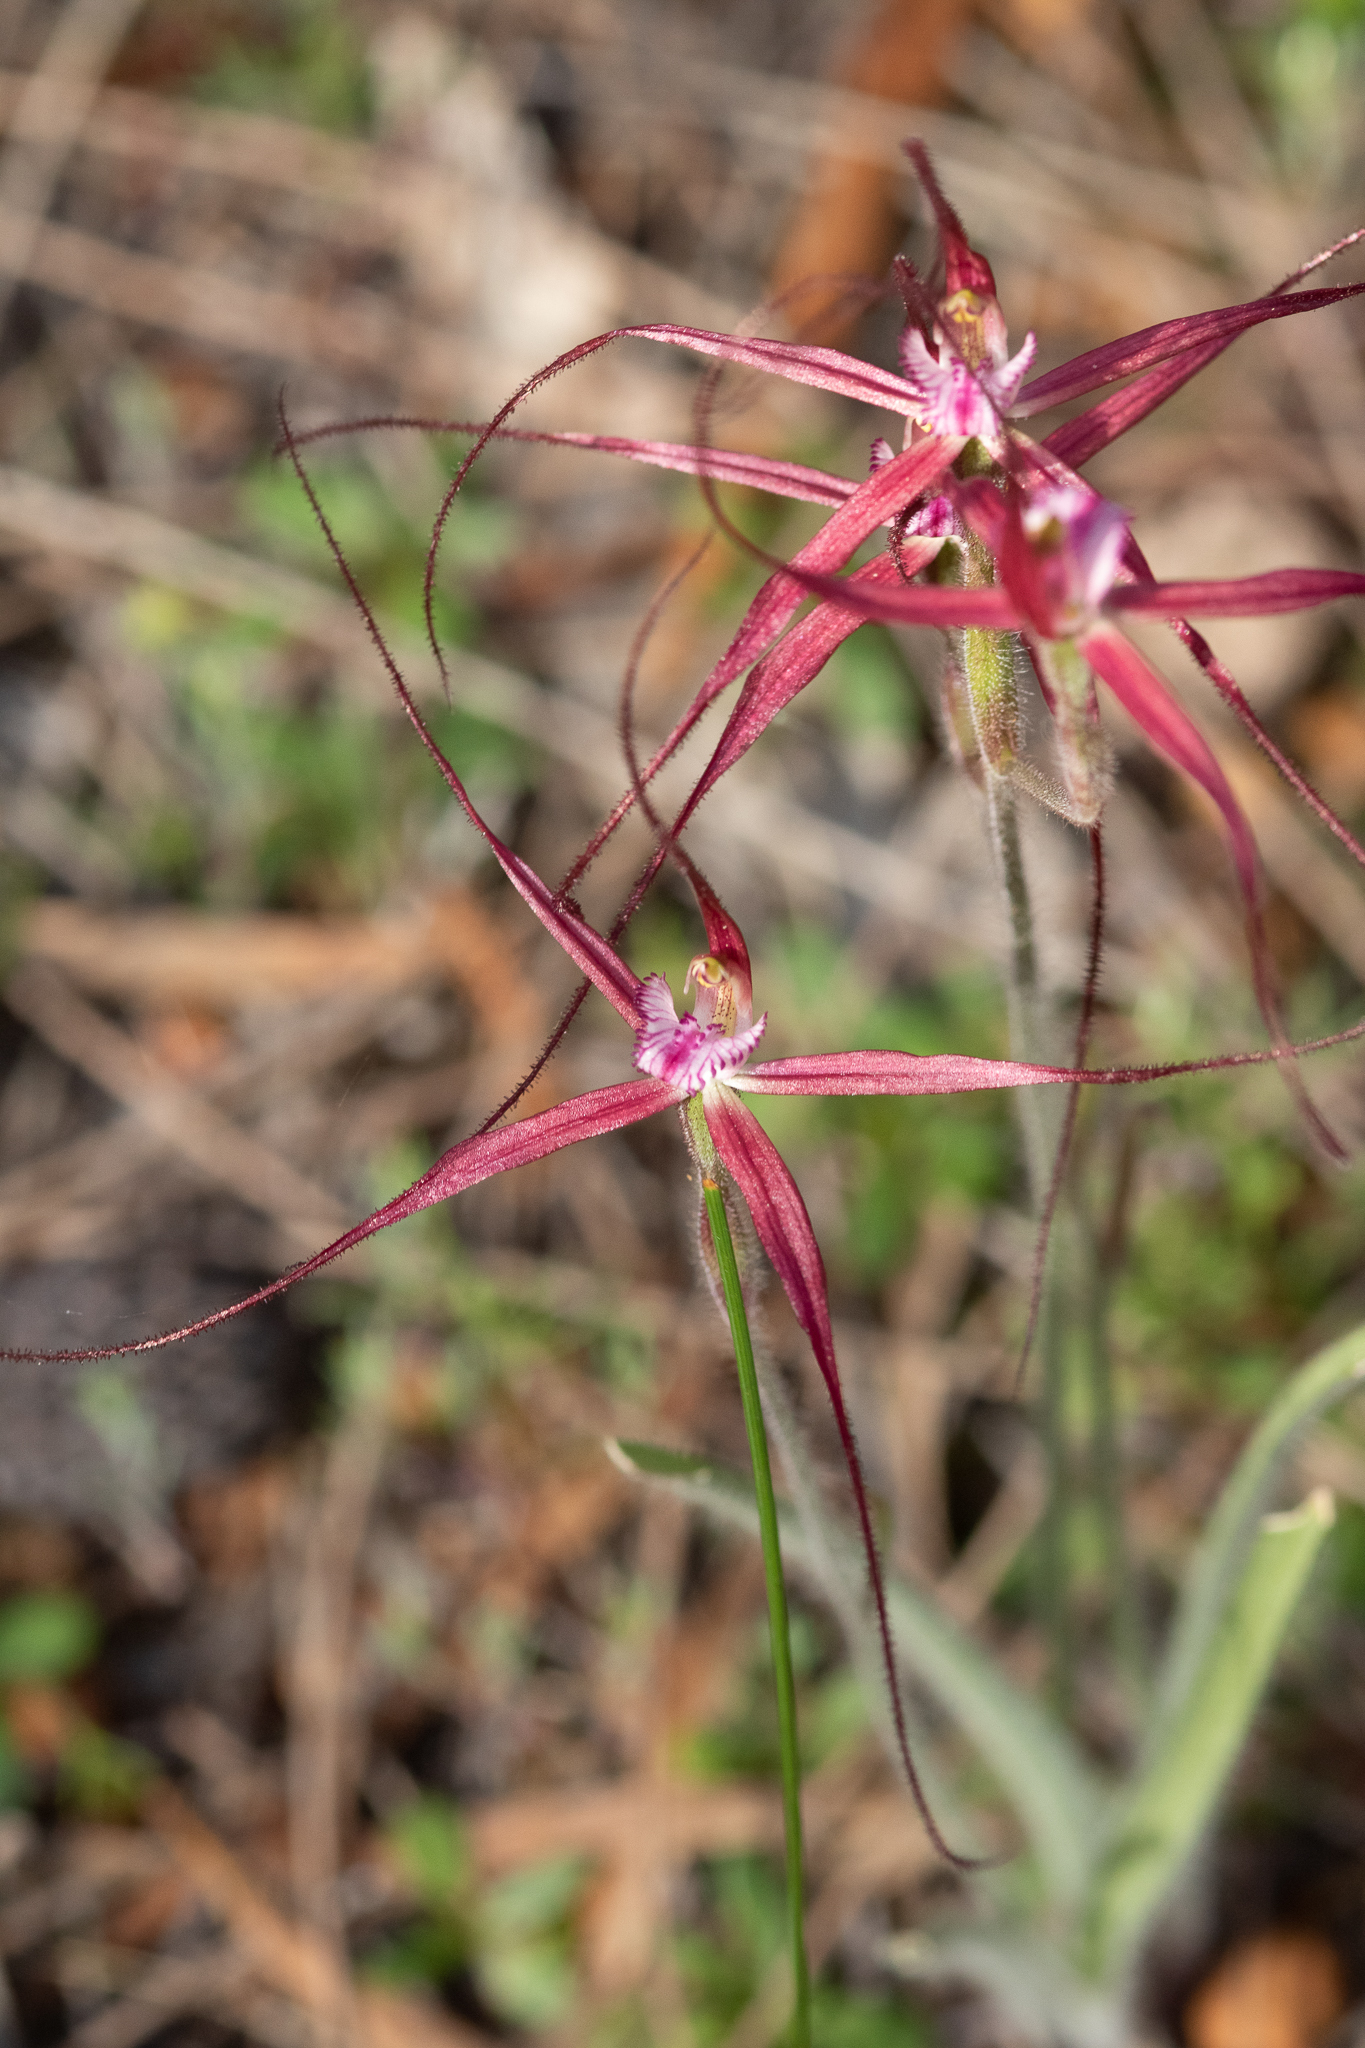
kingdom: Plantae
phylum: Tracheophyta
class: Liliopsida
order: Asparagales
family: Orchidaceae
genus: Caladenia
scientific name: Caladenia footeana
